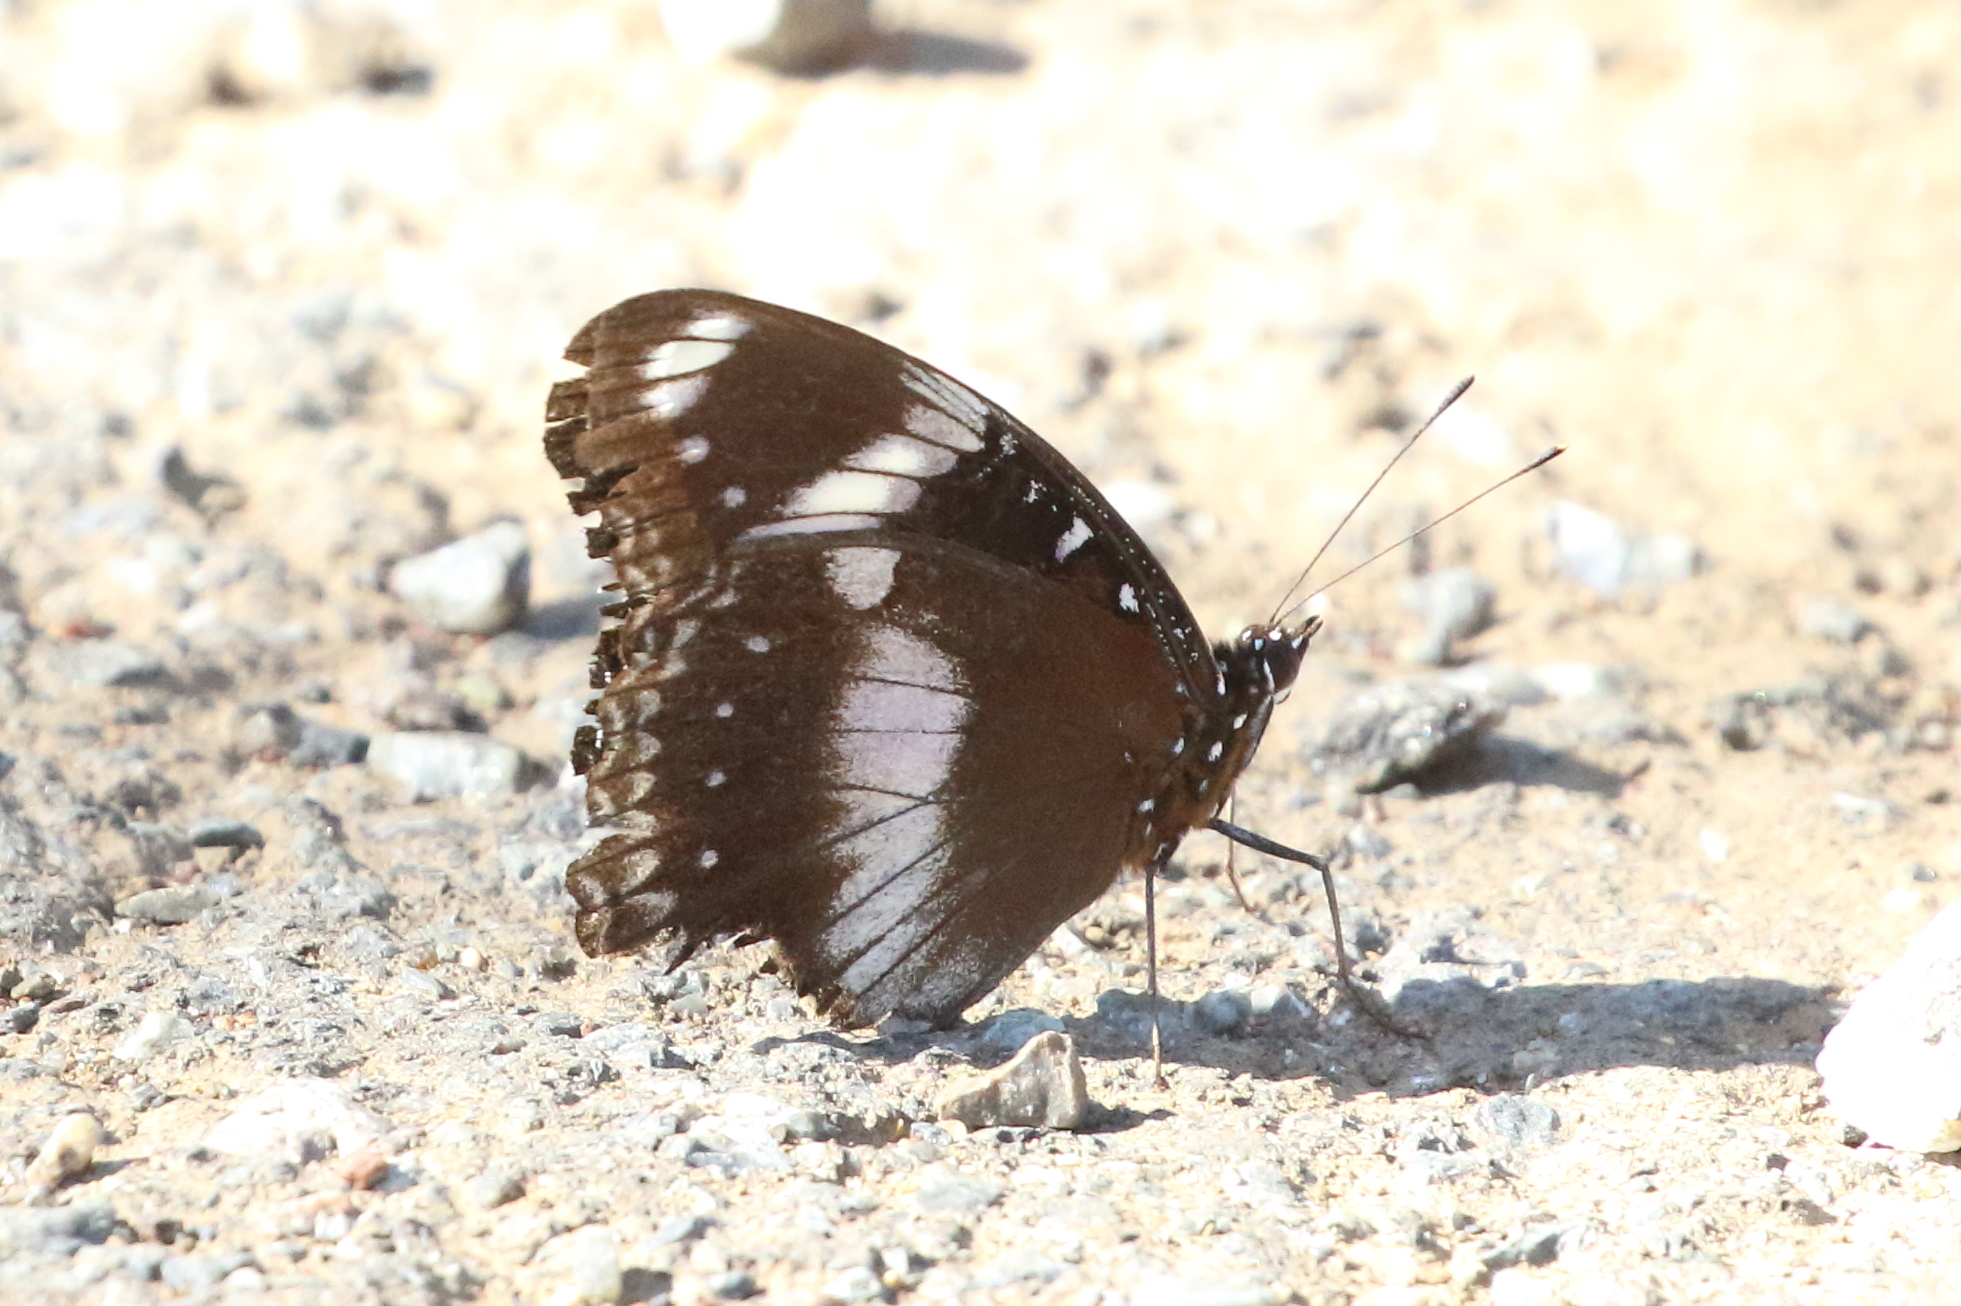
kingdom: Animalia
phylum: Arthropoda
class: Insecta
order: Lepidoptera
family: Nymphalidae
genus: Hypolimnas
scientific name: Hypolimnas bolina
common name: Great eggfly
